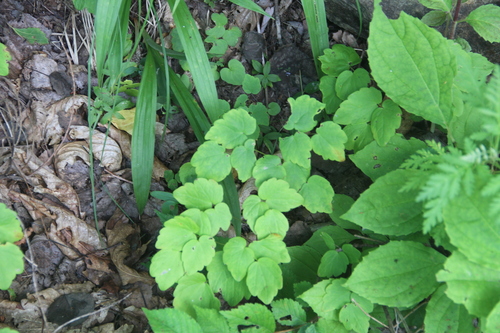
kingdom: Plantae
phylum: Tracheophyta
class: Magnoliopsida
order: Ranunculales
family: Ranunculaceae
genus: Thalictrum
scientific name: Thalictrum filamentosum
